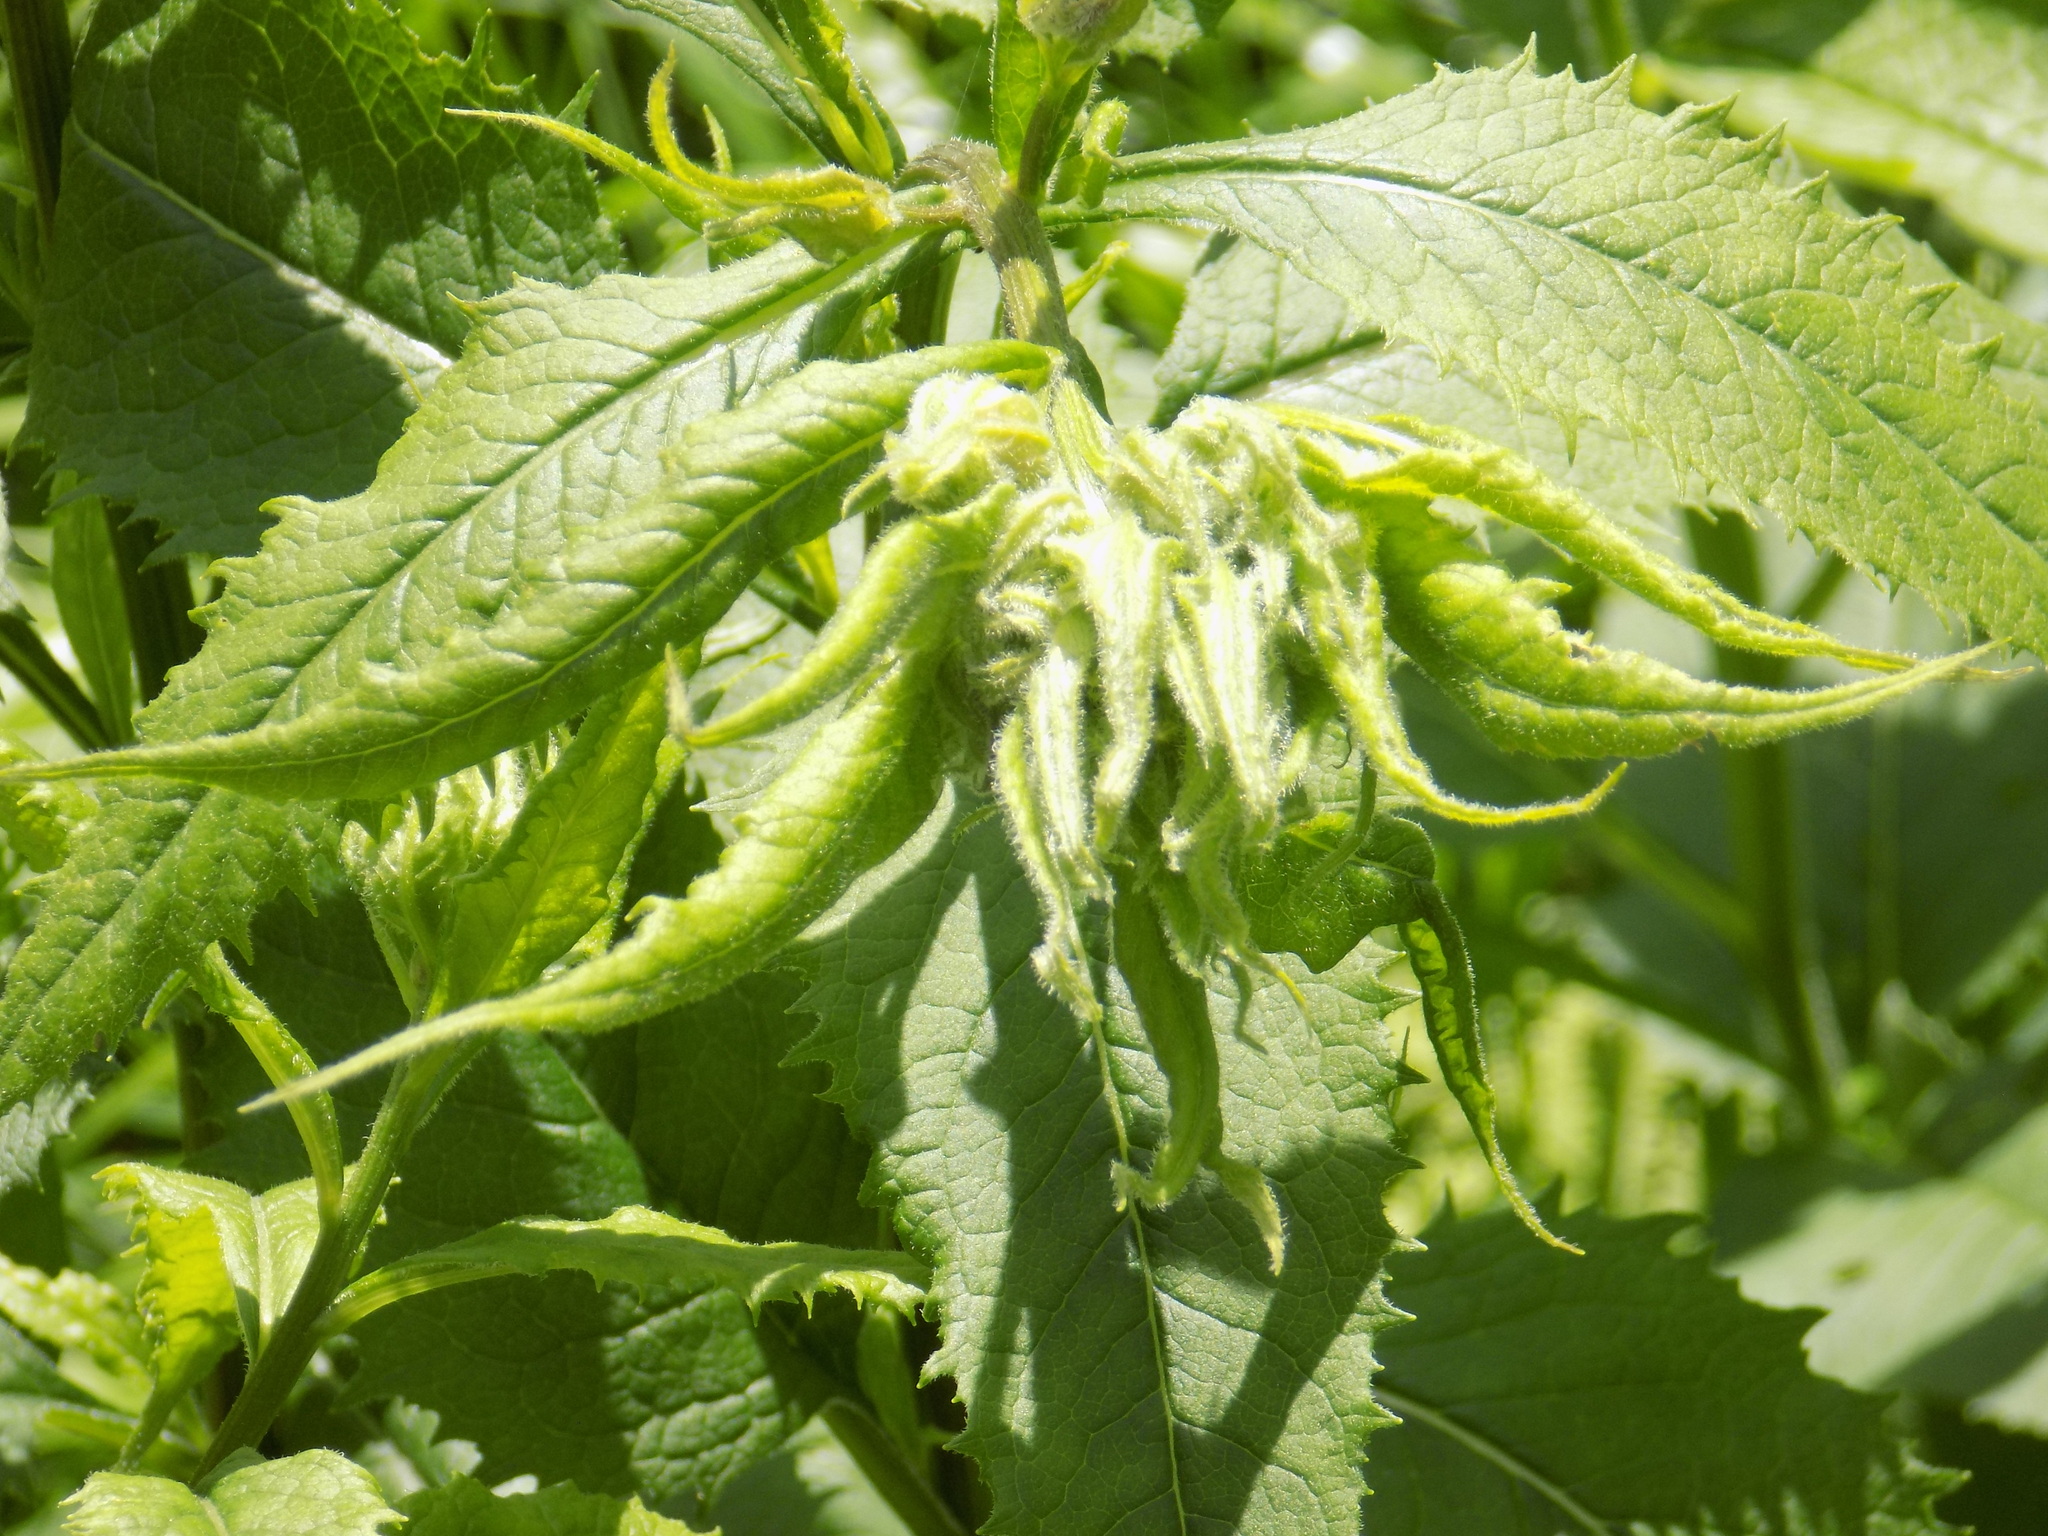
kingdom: Plantae
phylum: Tracheophyta
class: Magnoliopsida
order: Asterales
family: Asteraceae
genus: Senecio
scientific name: Senecio nemorensis
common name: Alpine ragwort
